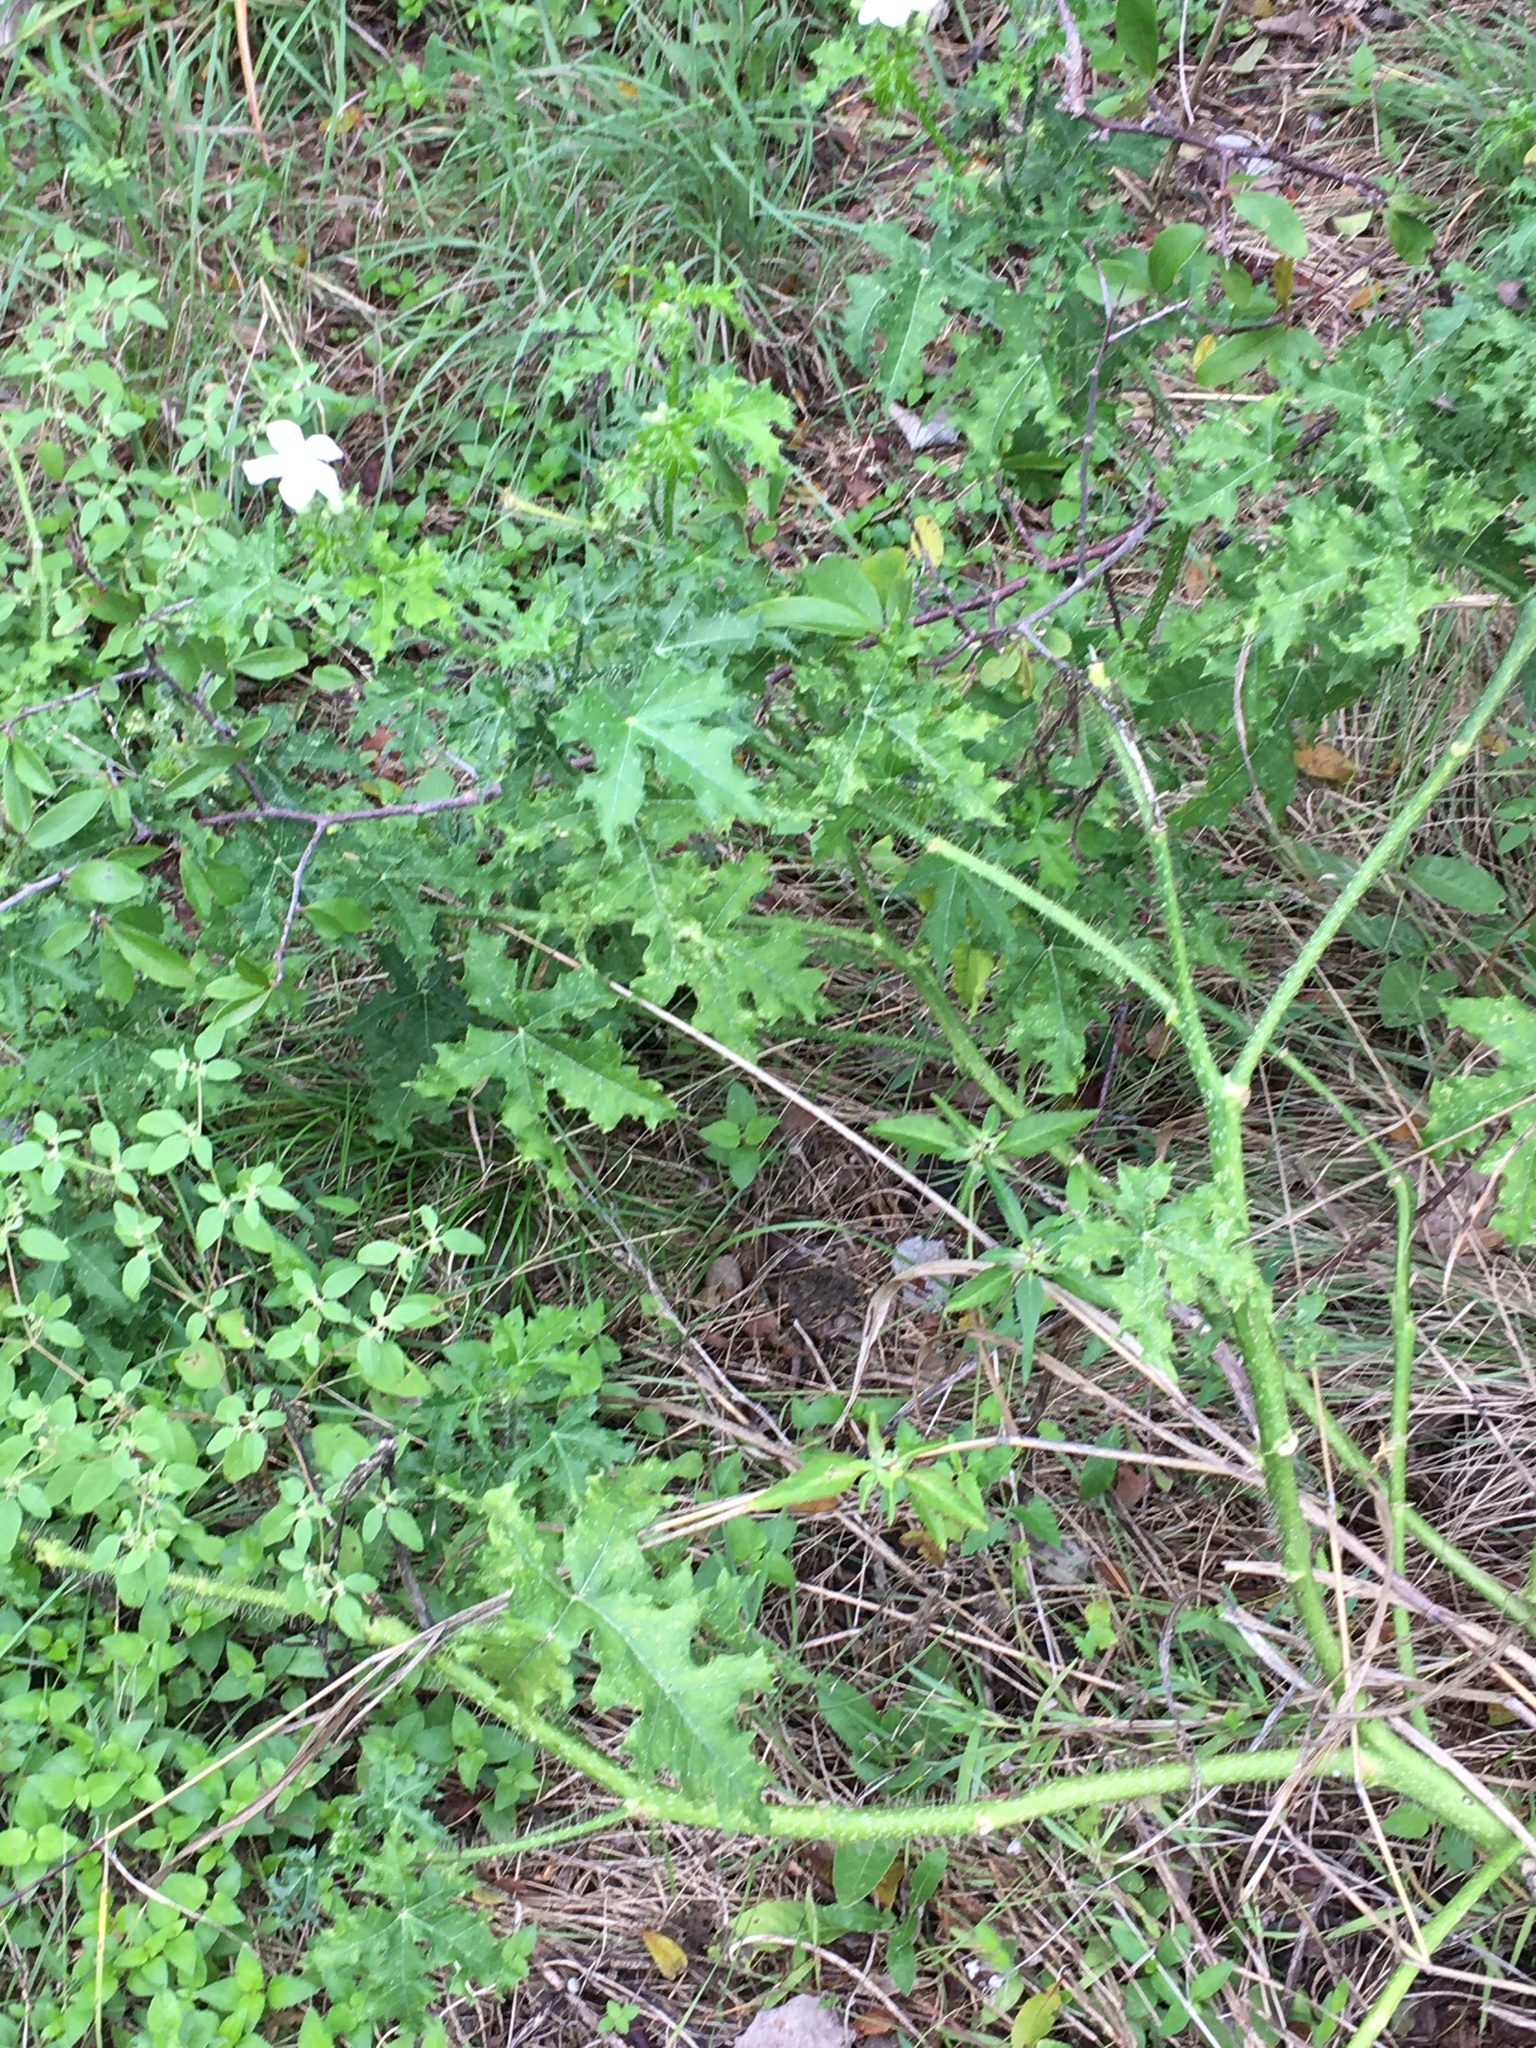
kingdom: Plantae
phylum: Tracheophyta
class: Magnoliopsida
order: Malpighiales
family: Euphorbiaceae
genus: Cnidoscolus
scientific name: Cnidoscolus texanus
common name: Texas bull-nettle
